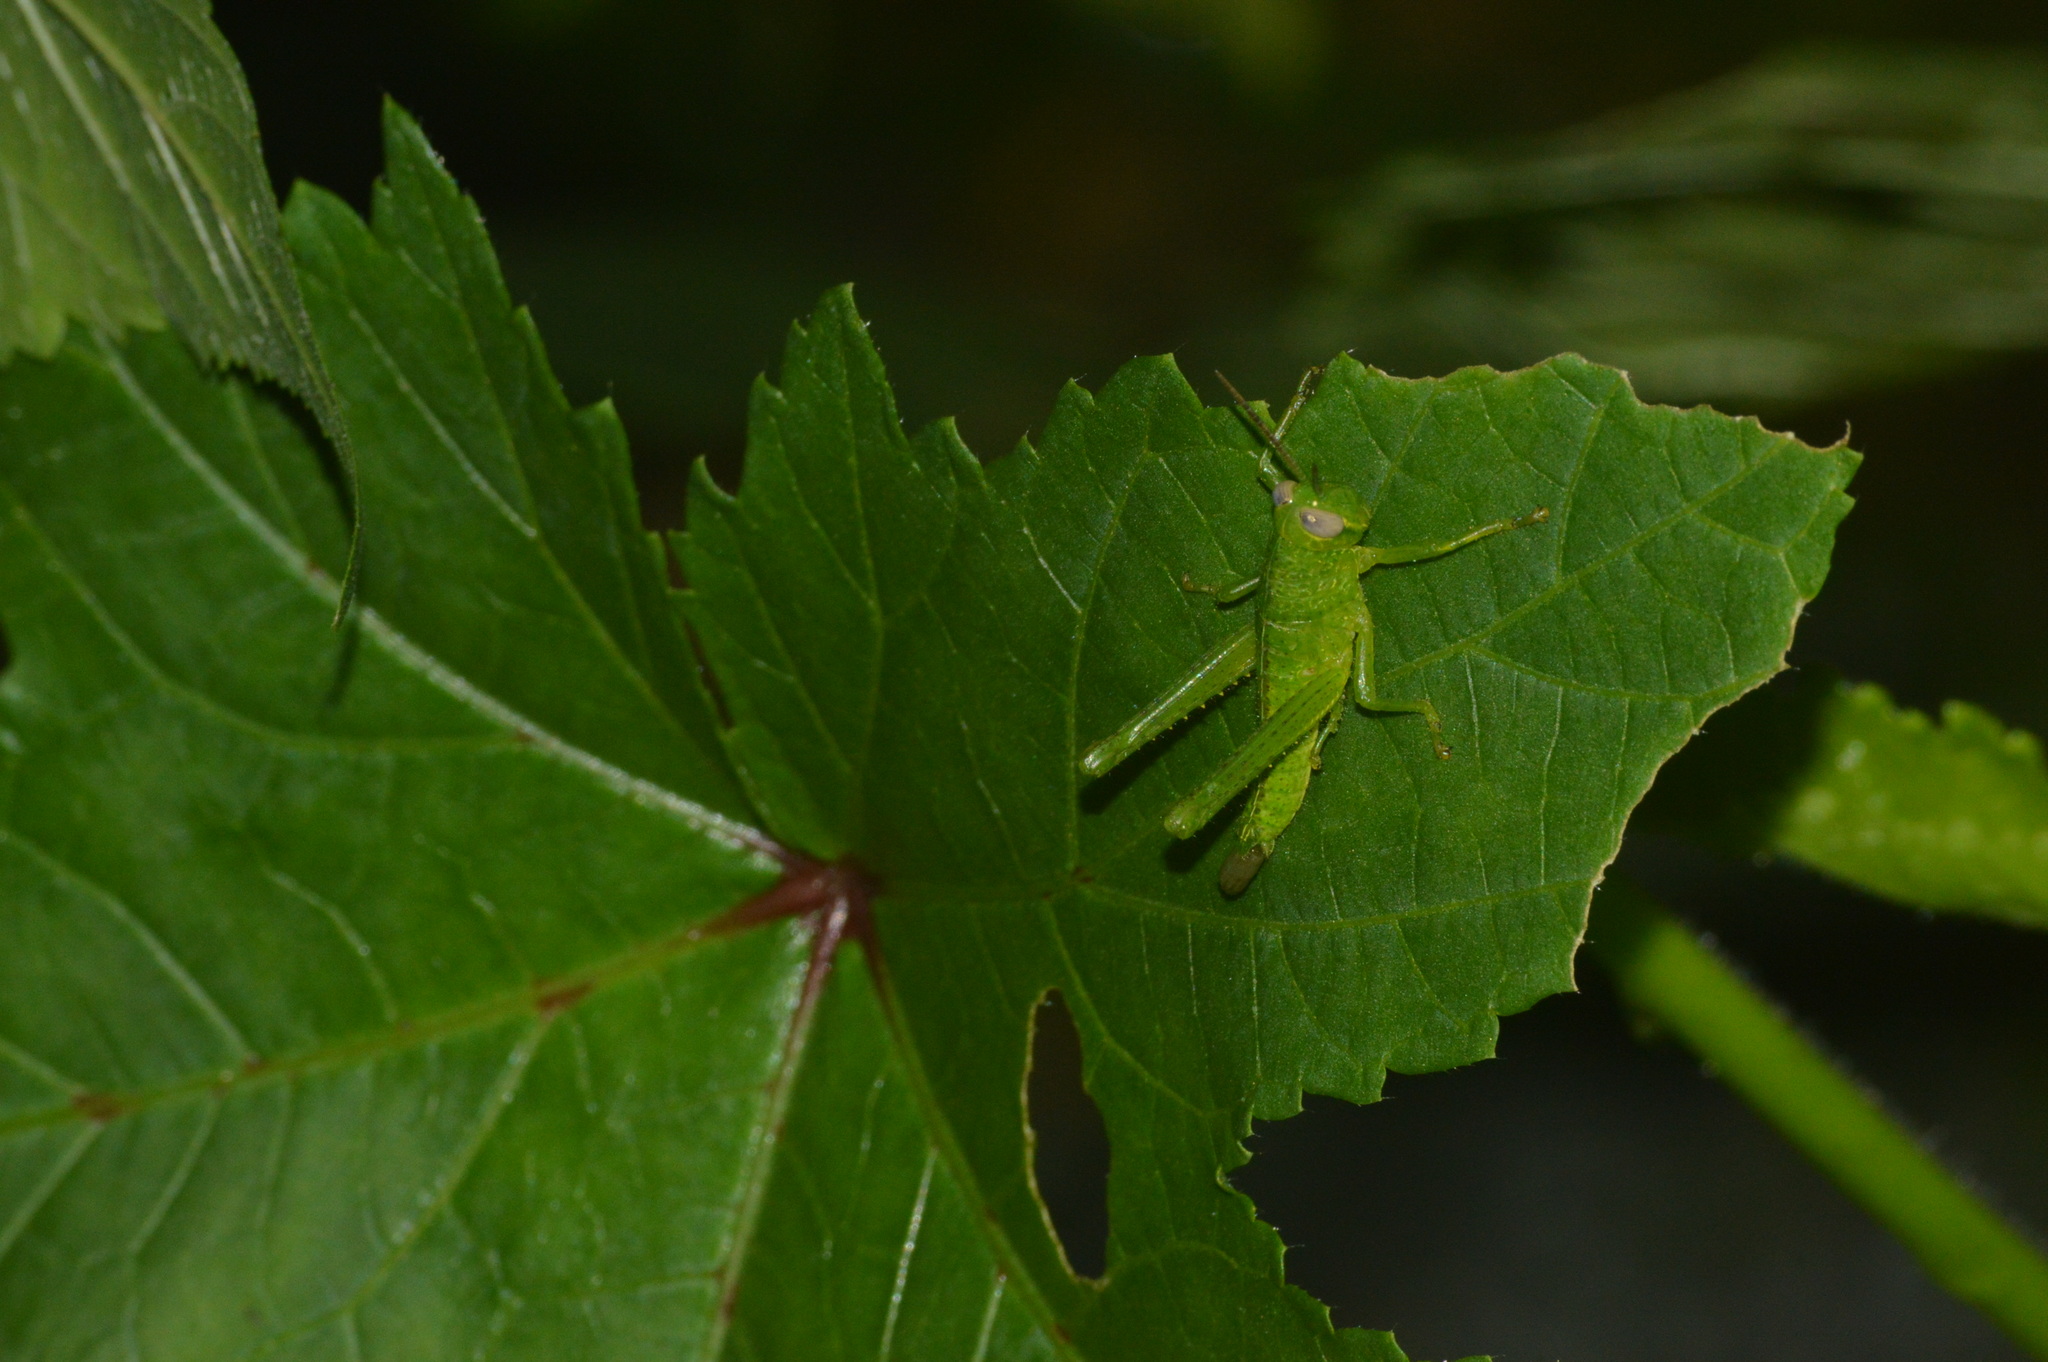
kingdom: Animalia
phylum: Arthropoda
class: Insecta
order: Orthoptera
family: Acrididae
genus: Valanga
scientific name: Valanga nigricornis
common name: Javanese bird grasshopper
